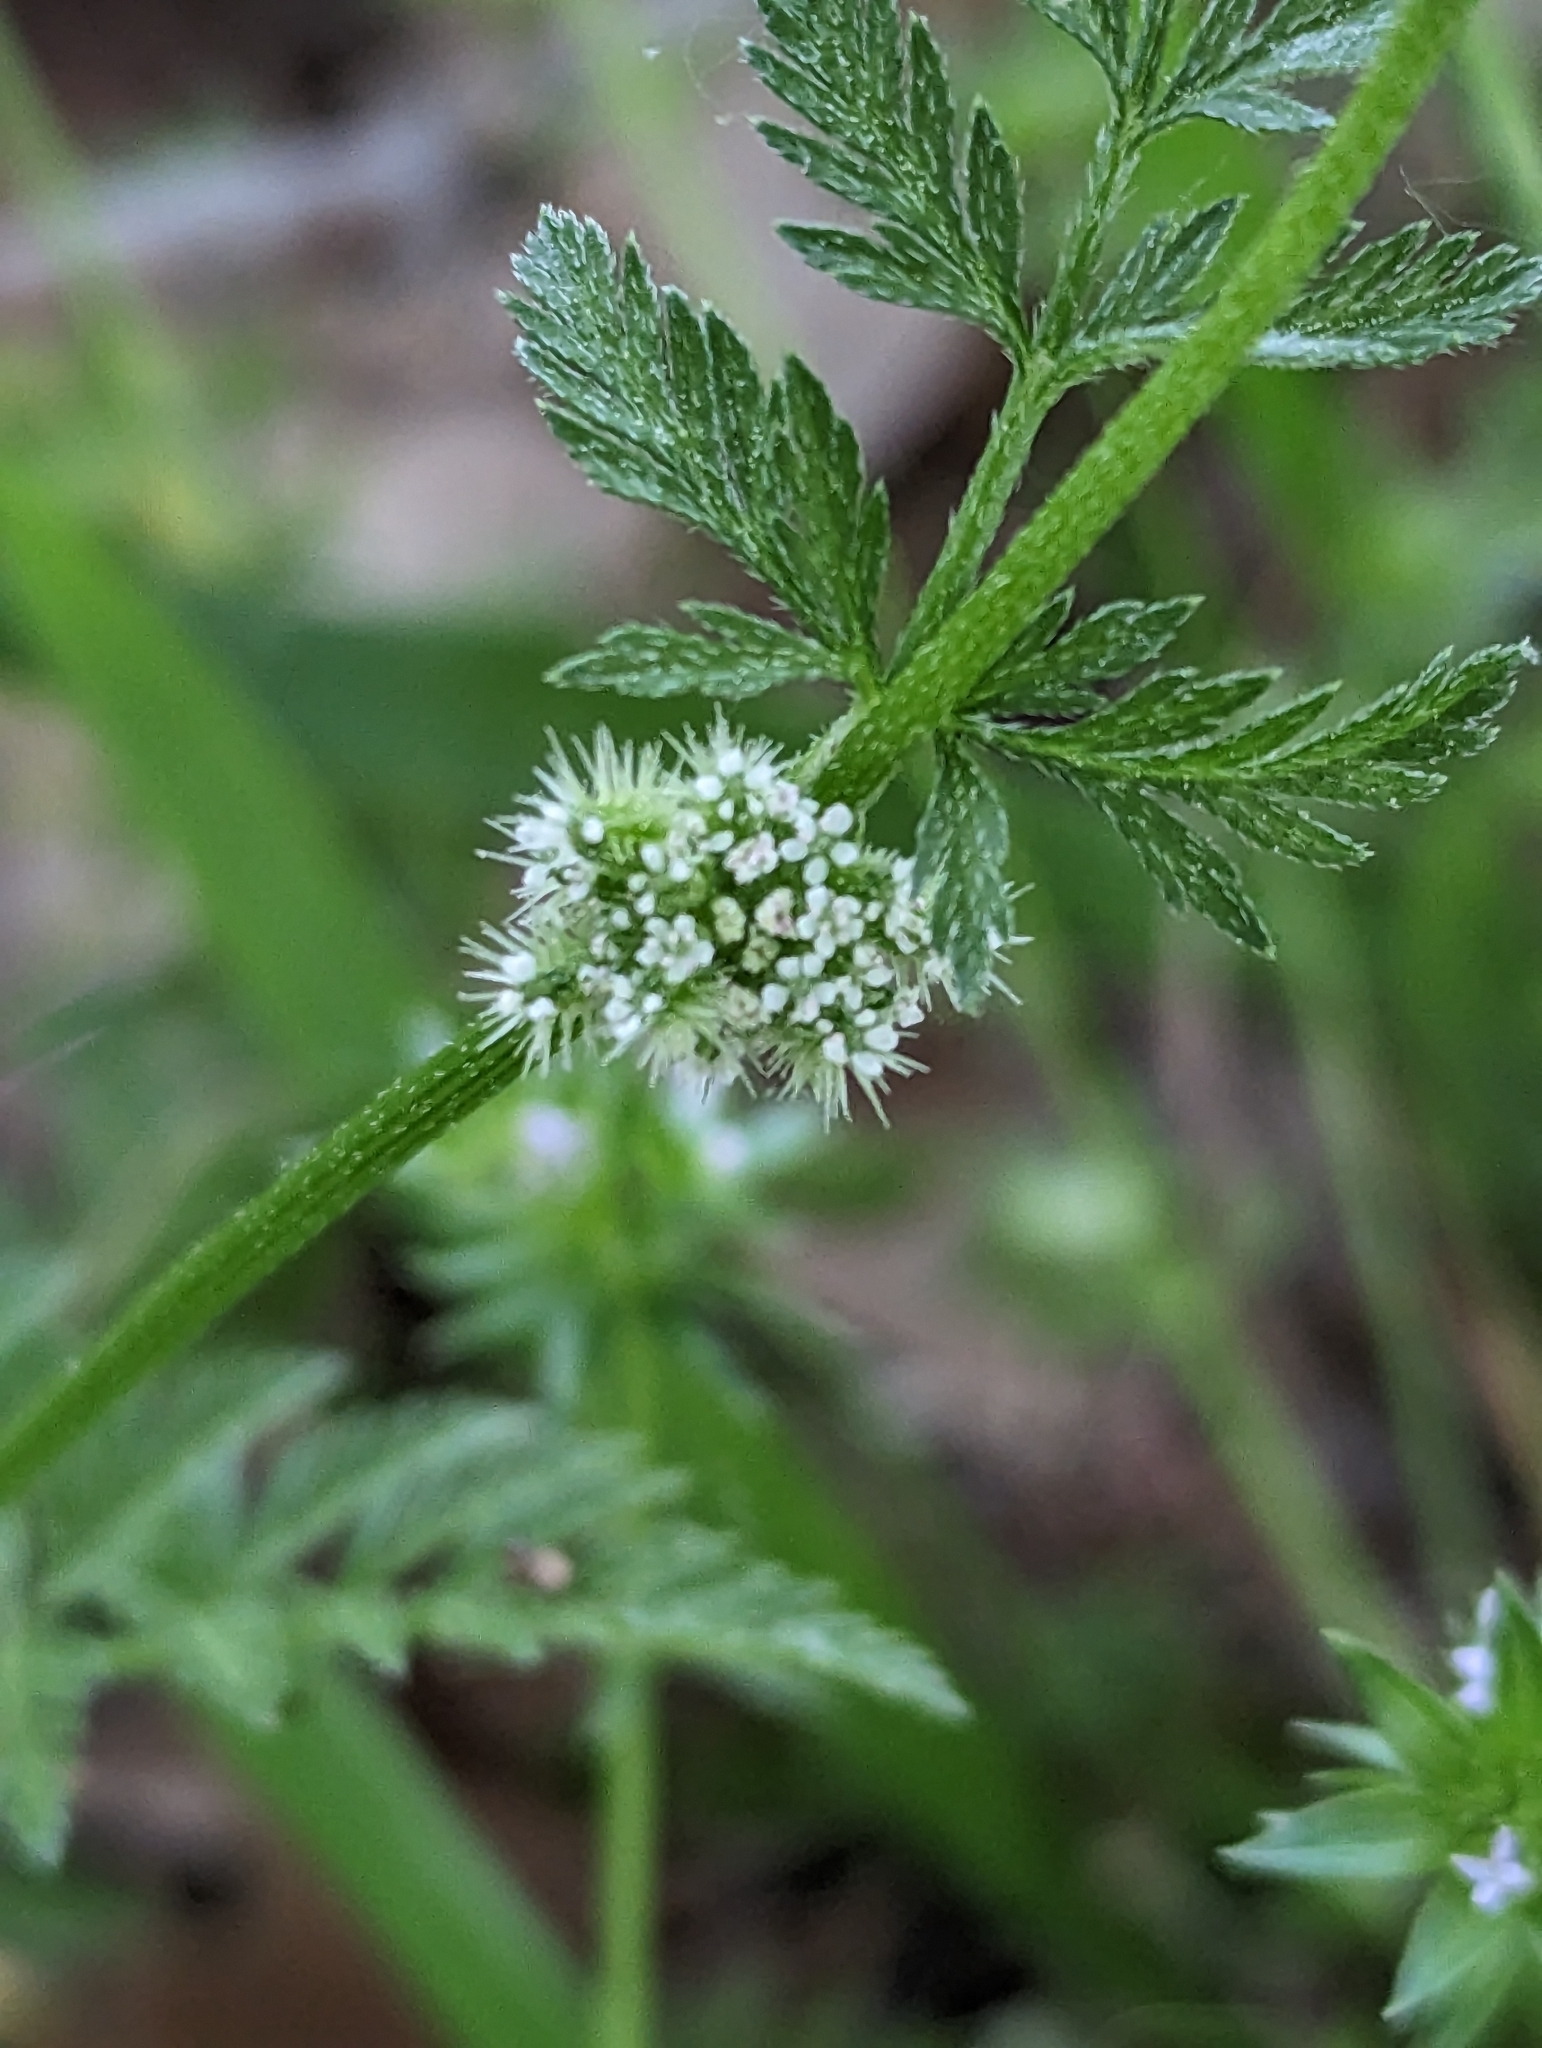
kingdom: Plantae
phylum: Tracheophyta
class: Magnoliopsida
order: Apiales
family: Apiaceae
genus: Torilis
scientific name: Torilis nodosa
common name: Knotted hedge-parsley
